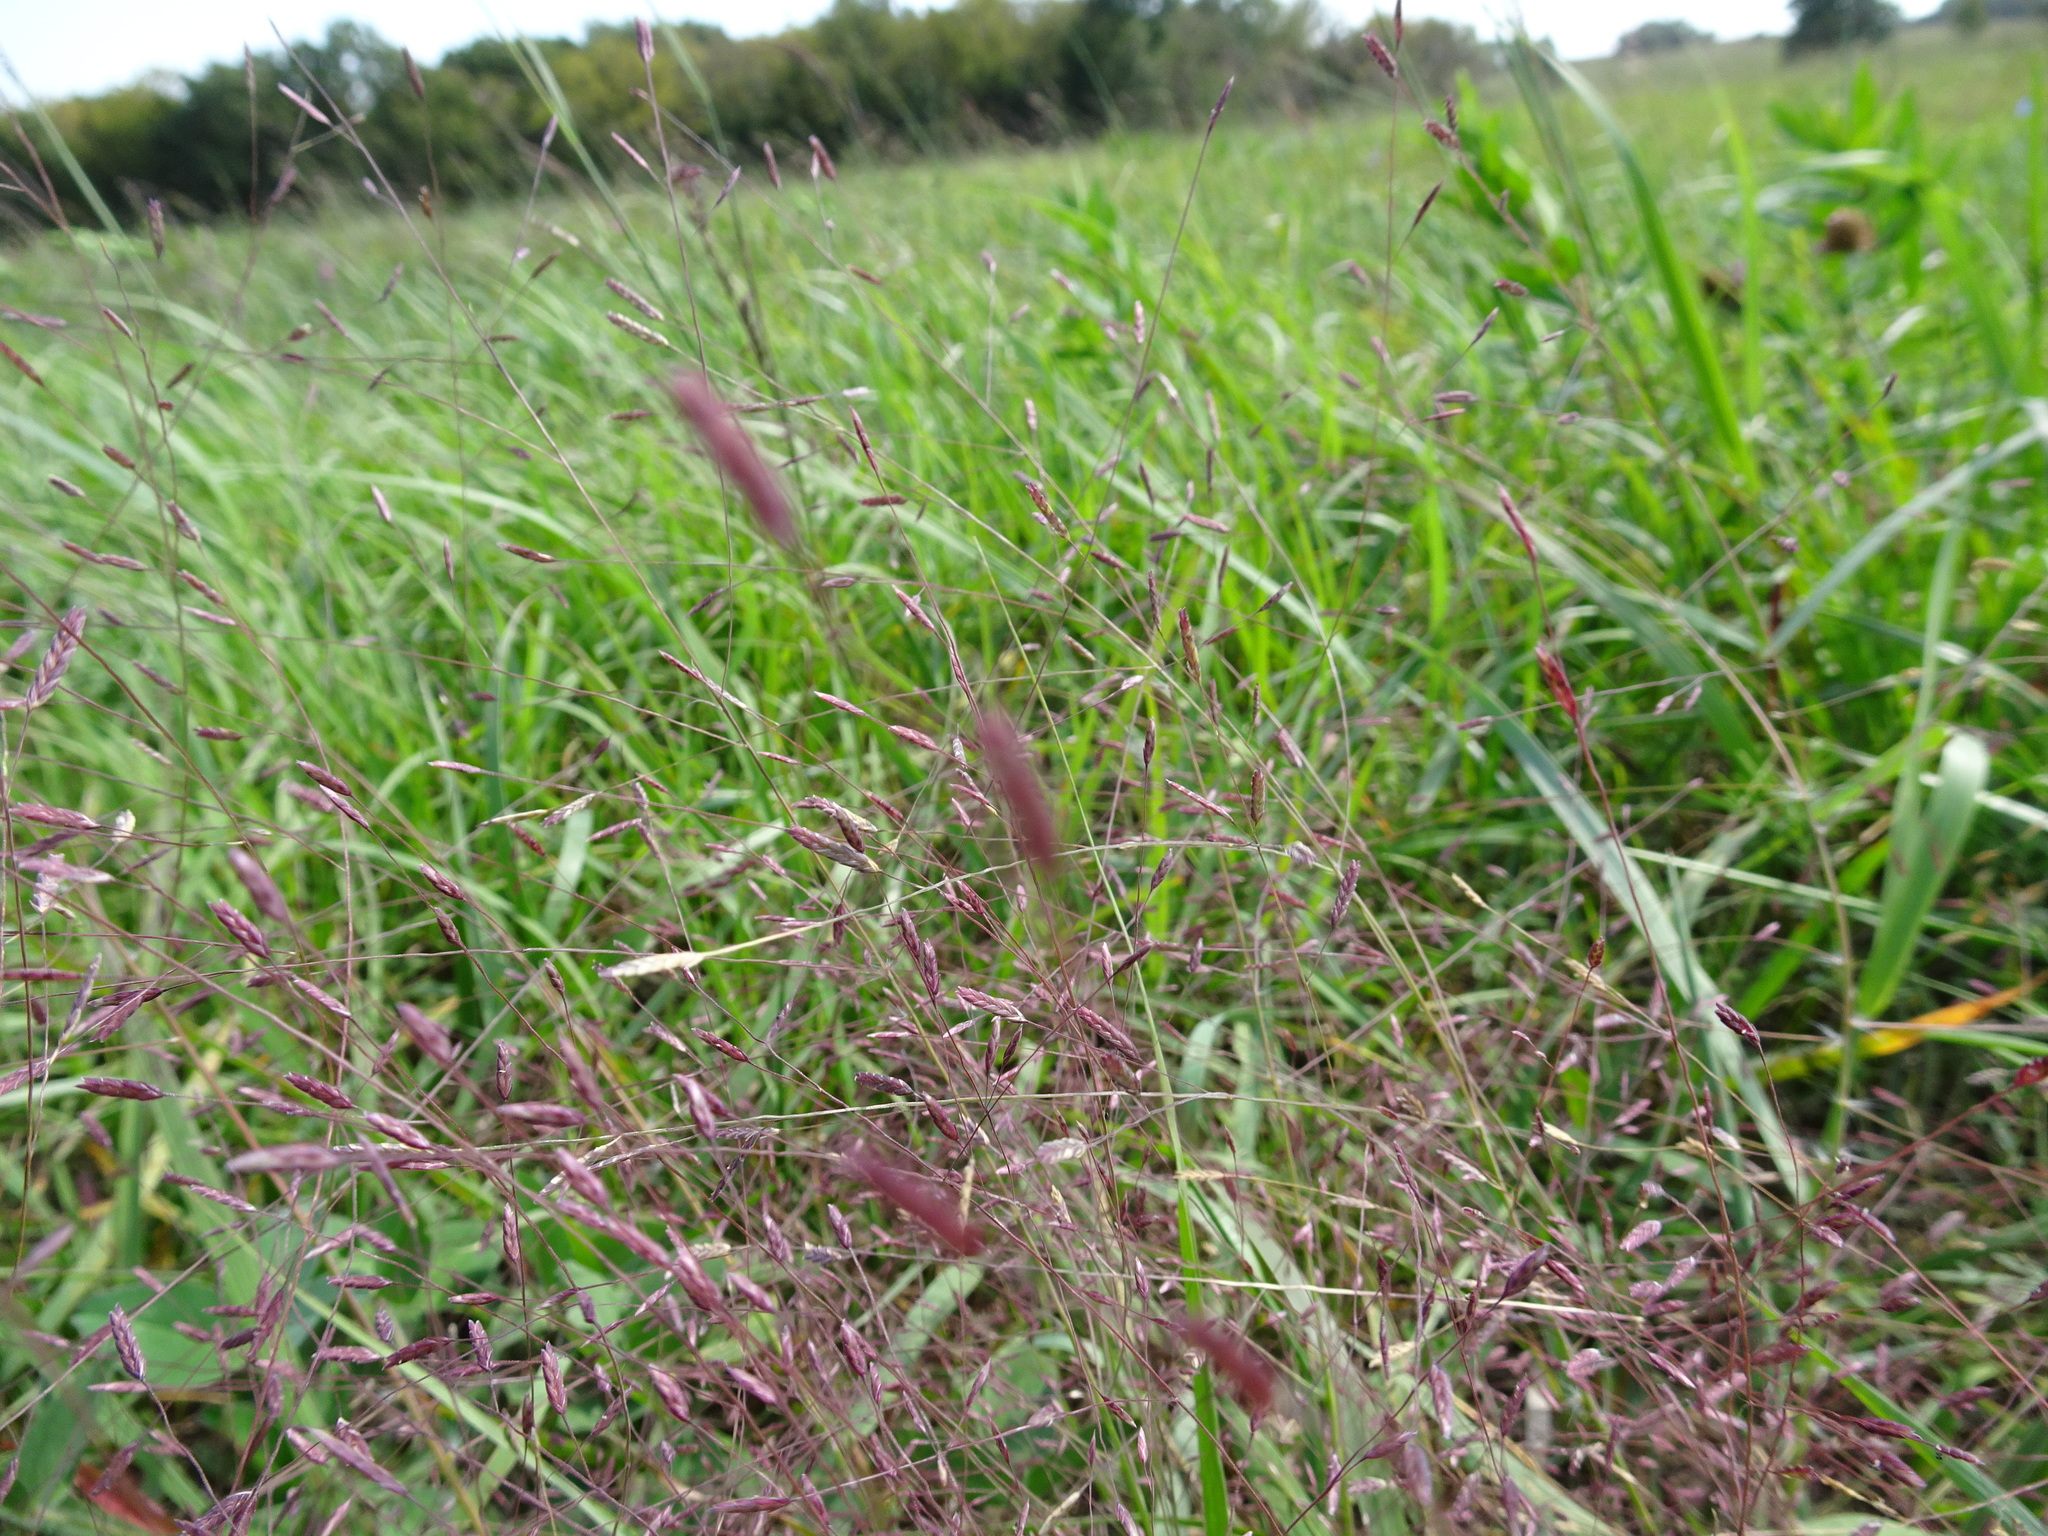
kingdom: Plantae
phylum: Tracheophyta
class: Liliopsida
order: Poales
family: Poaceae
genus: Eragrostis
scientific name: Eragrostis spectabilis
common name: Petticoat-climber
